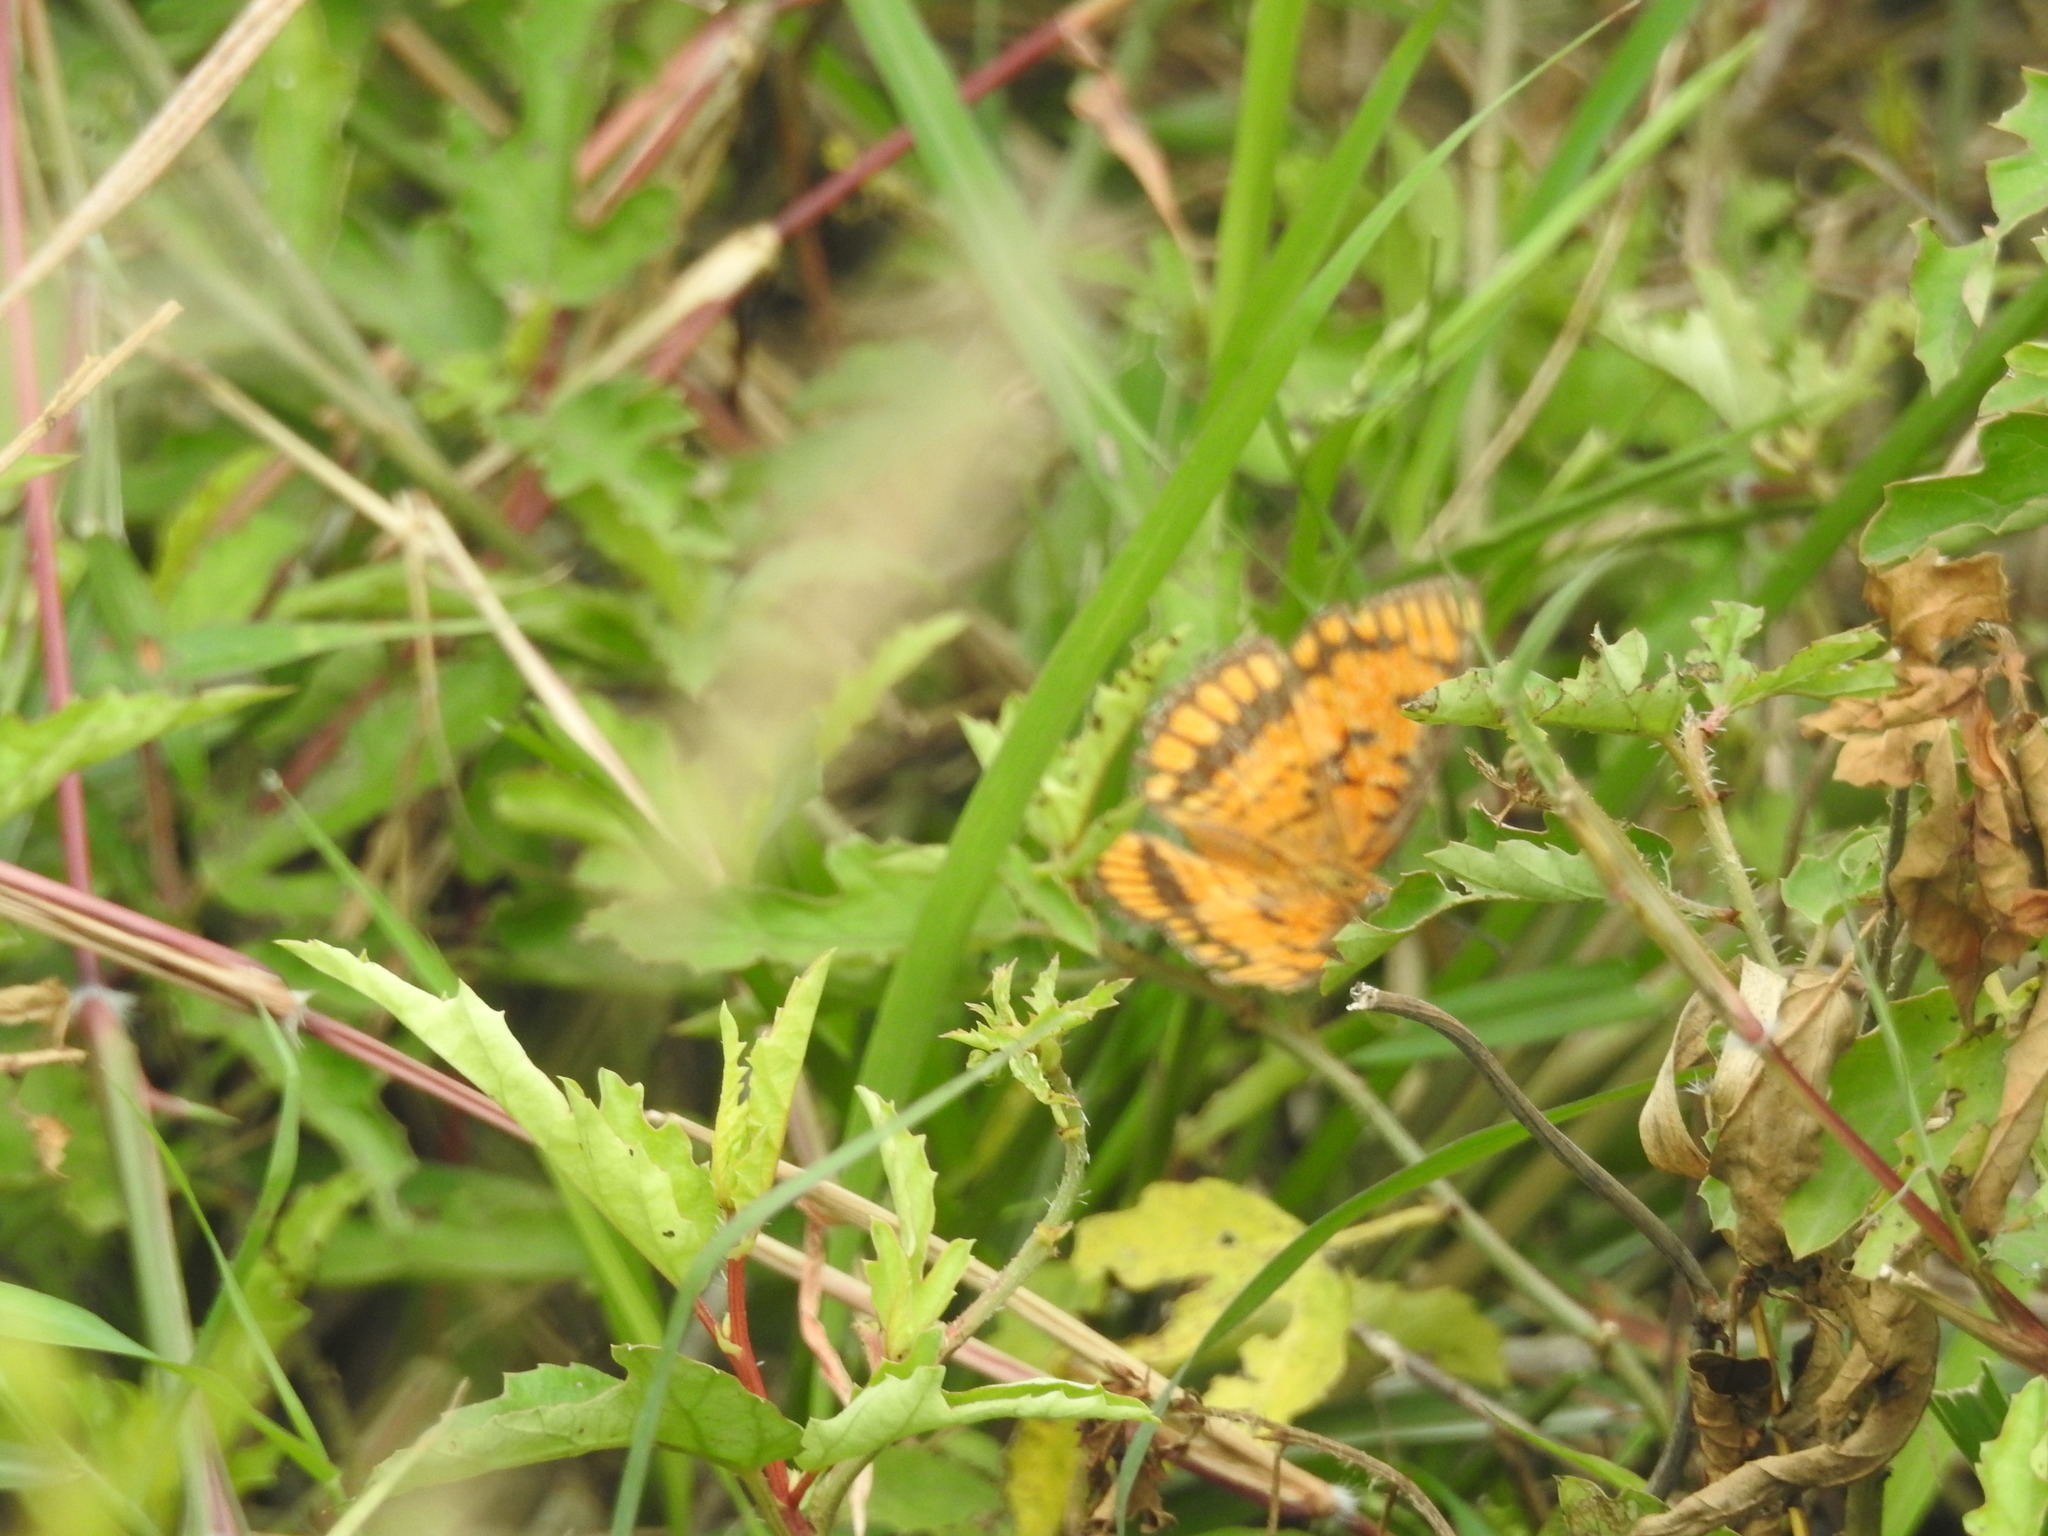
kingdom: Animalia
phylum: Arthropoda
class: Insecta
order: Lepidoptera
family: Nymphalidae
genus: Byblia
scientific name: Byblia ilithyia
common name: Spotted joker
